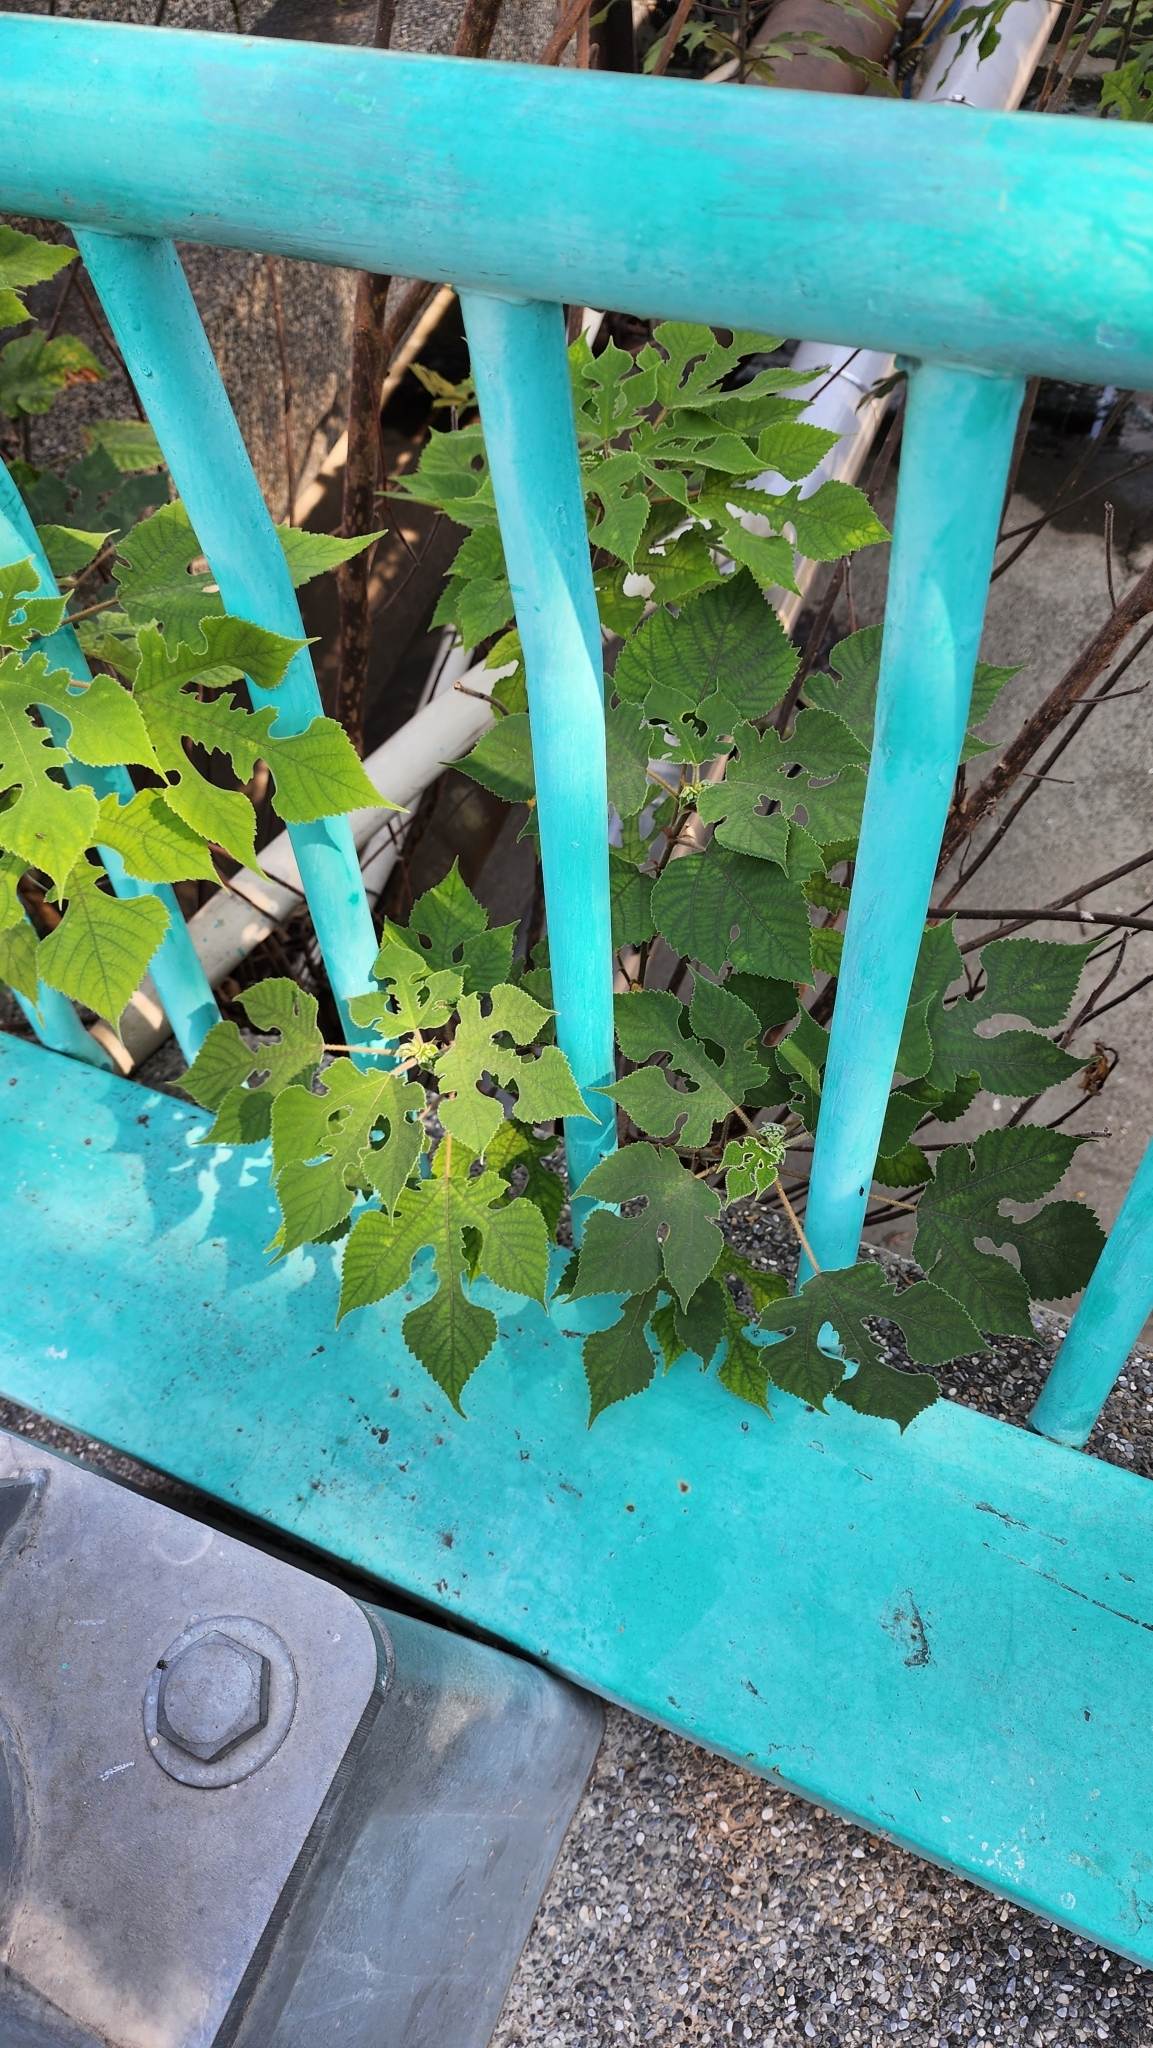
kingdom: Plantae
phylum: Tracheophyta
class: Magnoliopsida
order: Rosales
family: Moraceae
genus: Broussonetia
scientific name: Broussonetia papyrifera
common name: Paper mulberry
